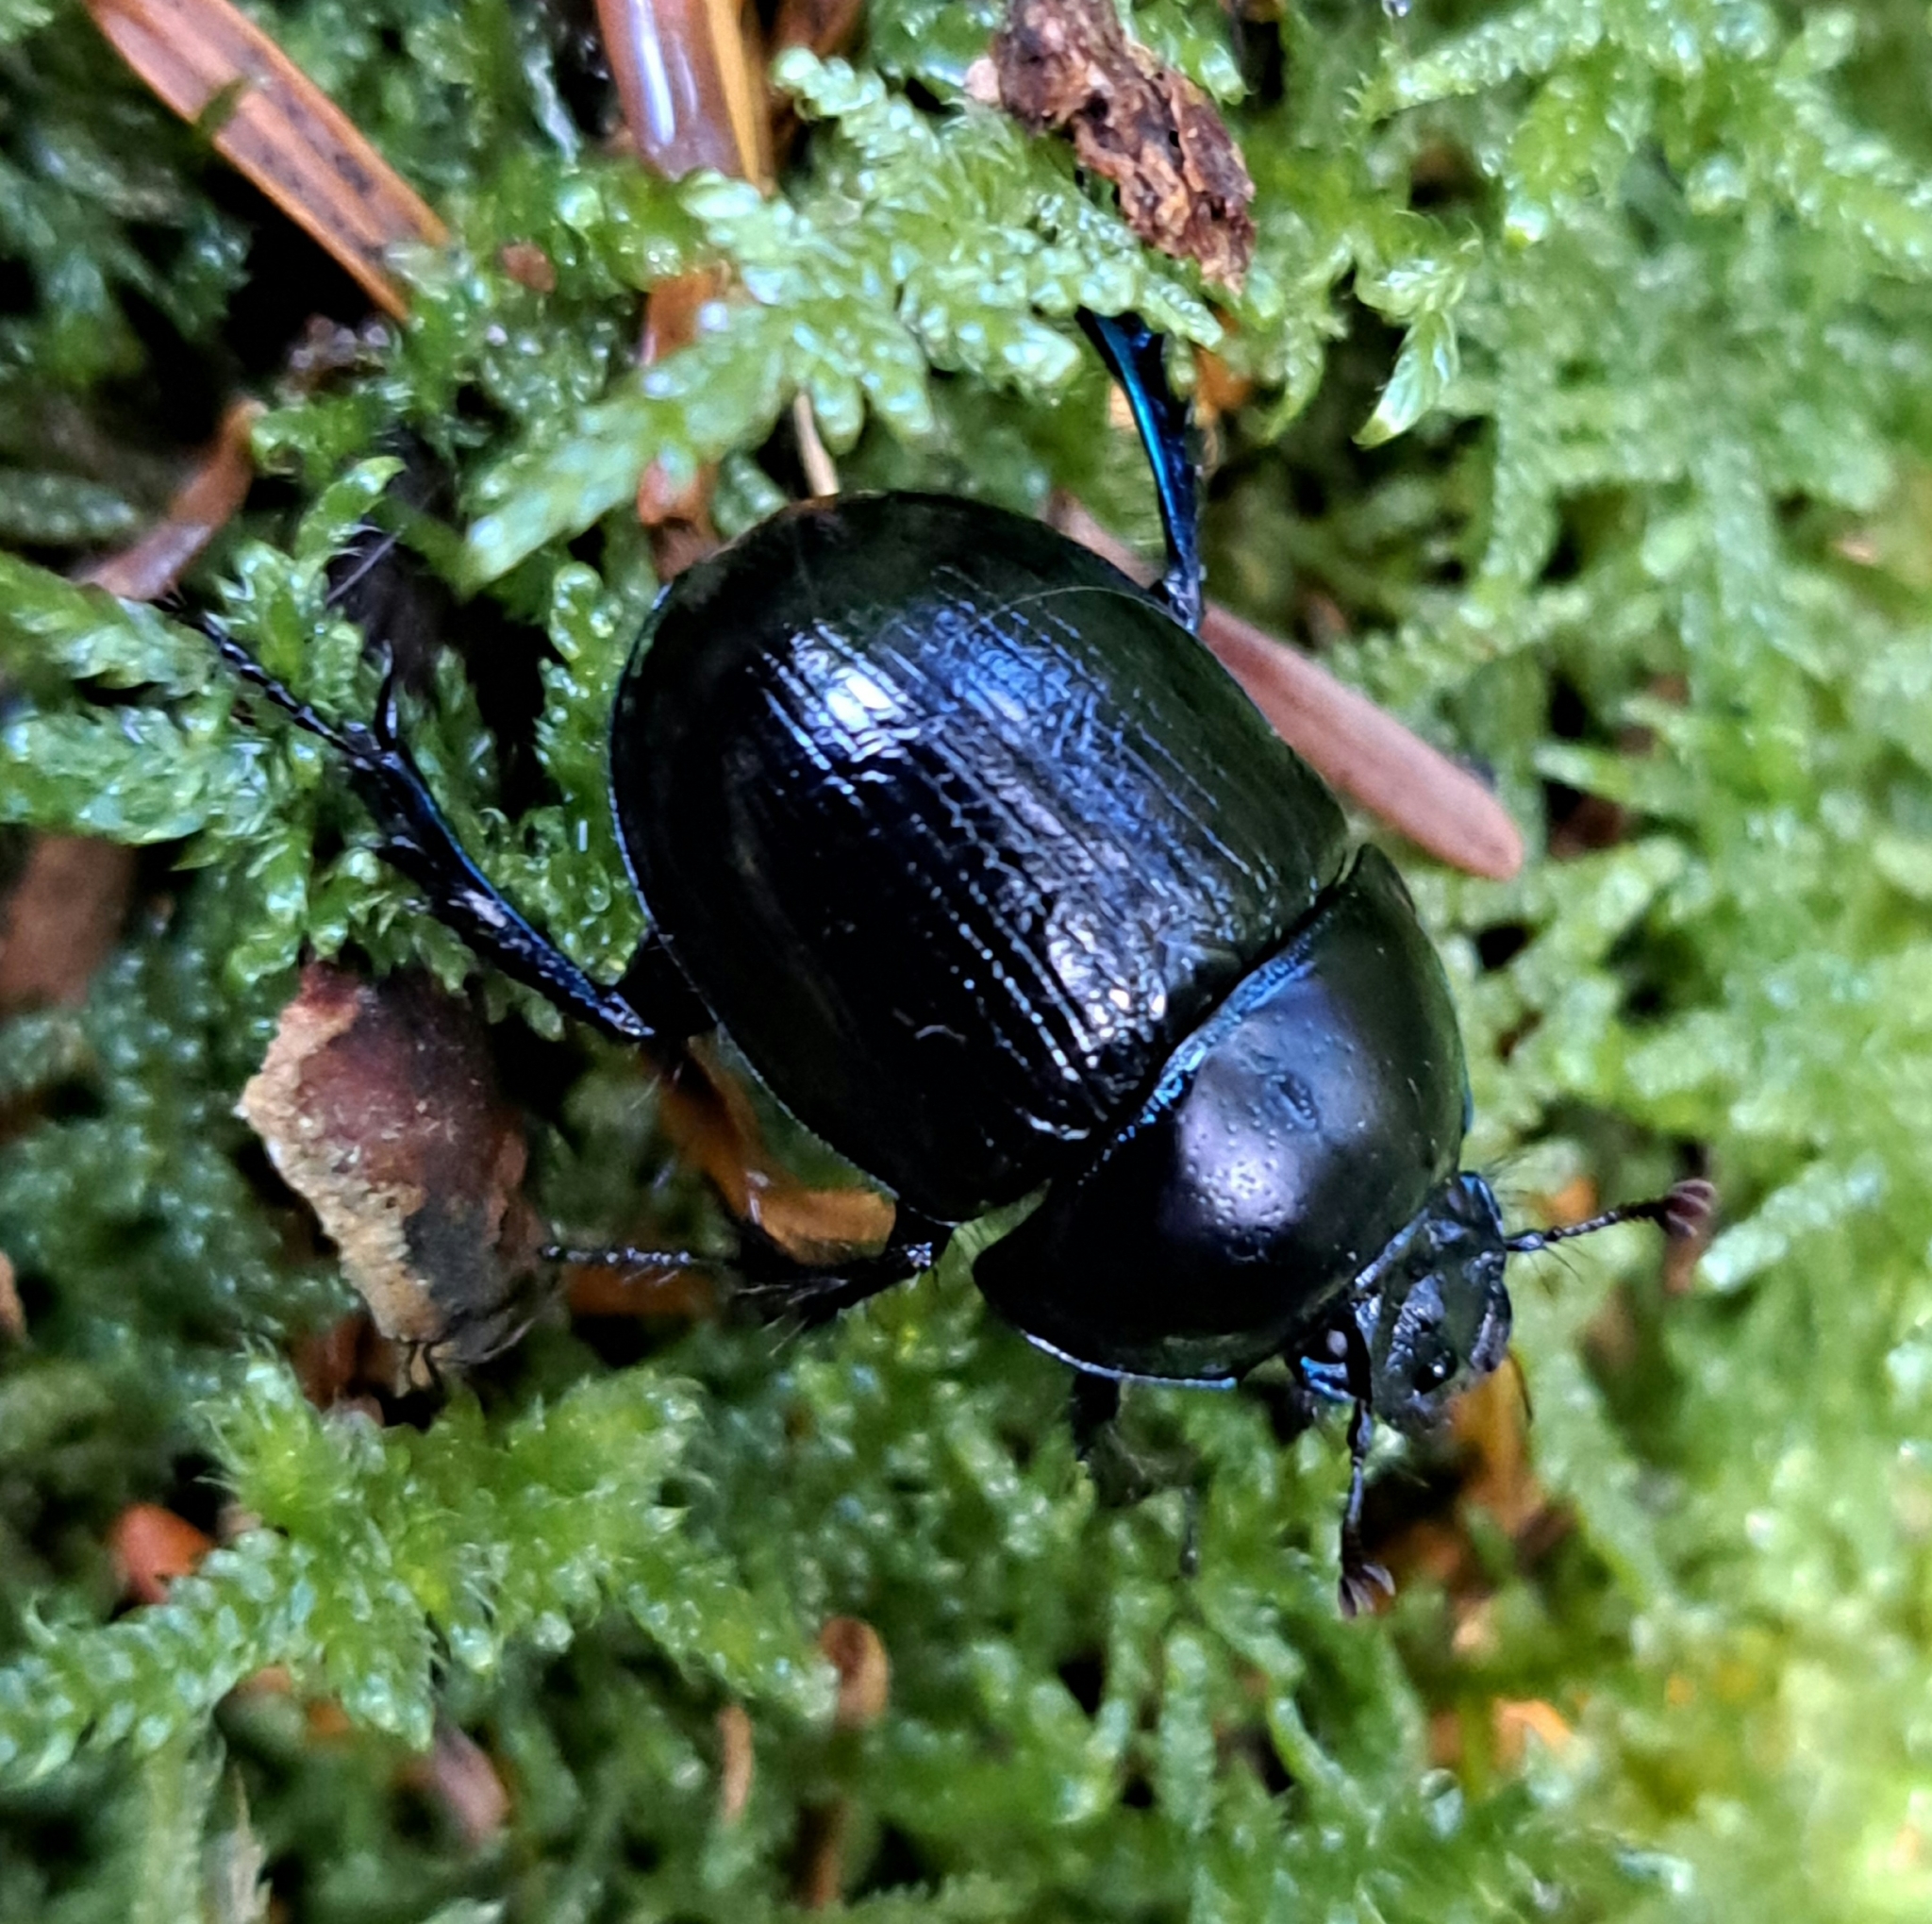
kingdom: Animalia
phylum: Arthropoda
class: Insecta
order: Coleoptera
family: Geotrupidae
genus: Anoplotrupes
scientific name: Anoplotrupes stercorosus
